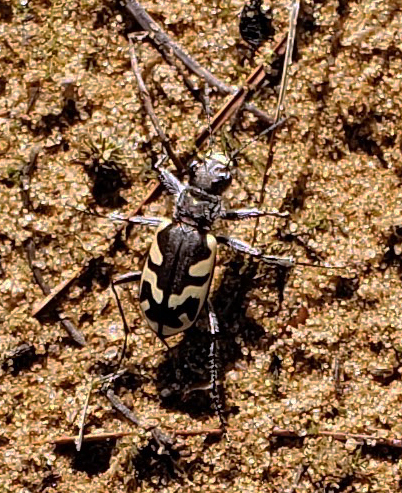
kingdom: Animalia
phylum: Arthropoda
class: Insecta
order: Coleoptera
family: Carabidae
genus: Cicindela
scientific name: Cicindela formosa
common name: Big sand tiger beetle
